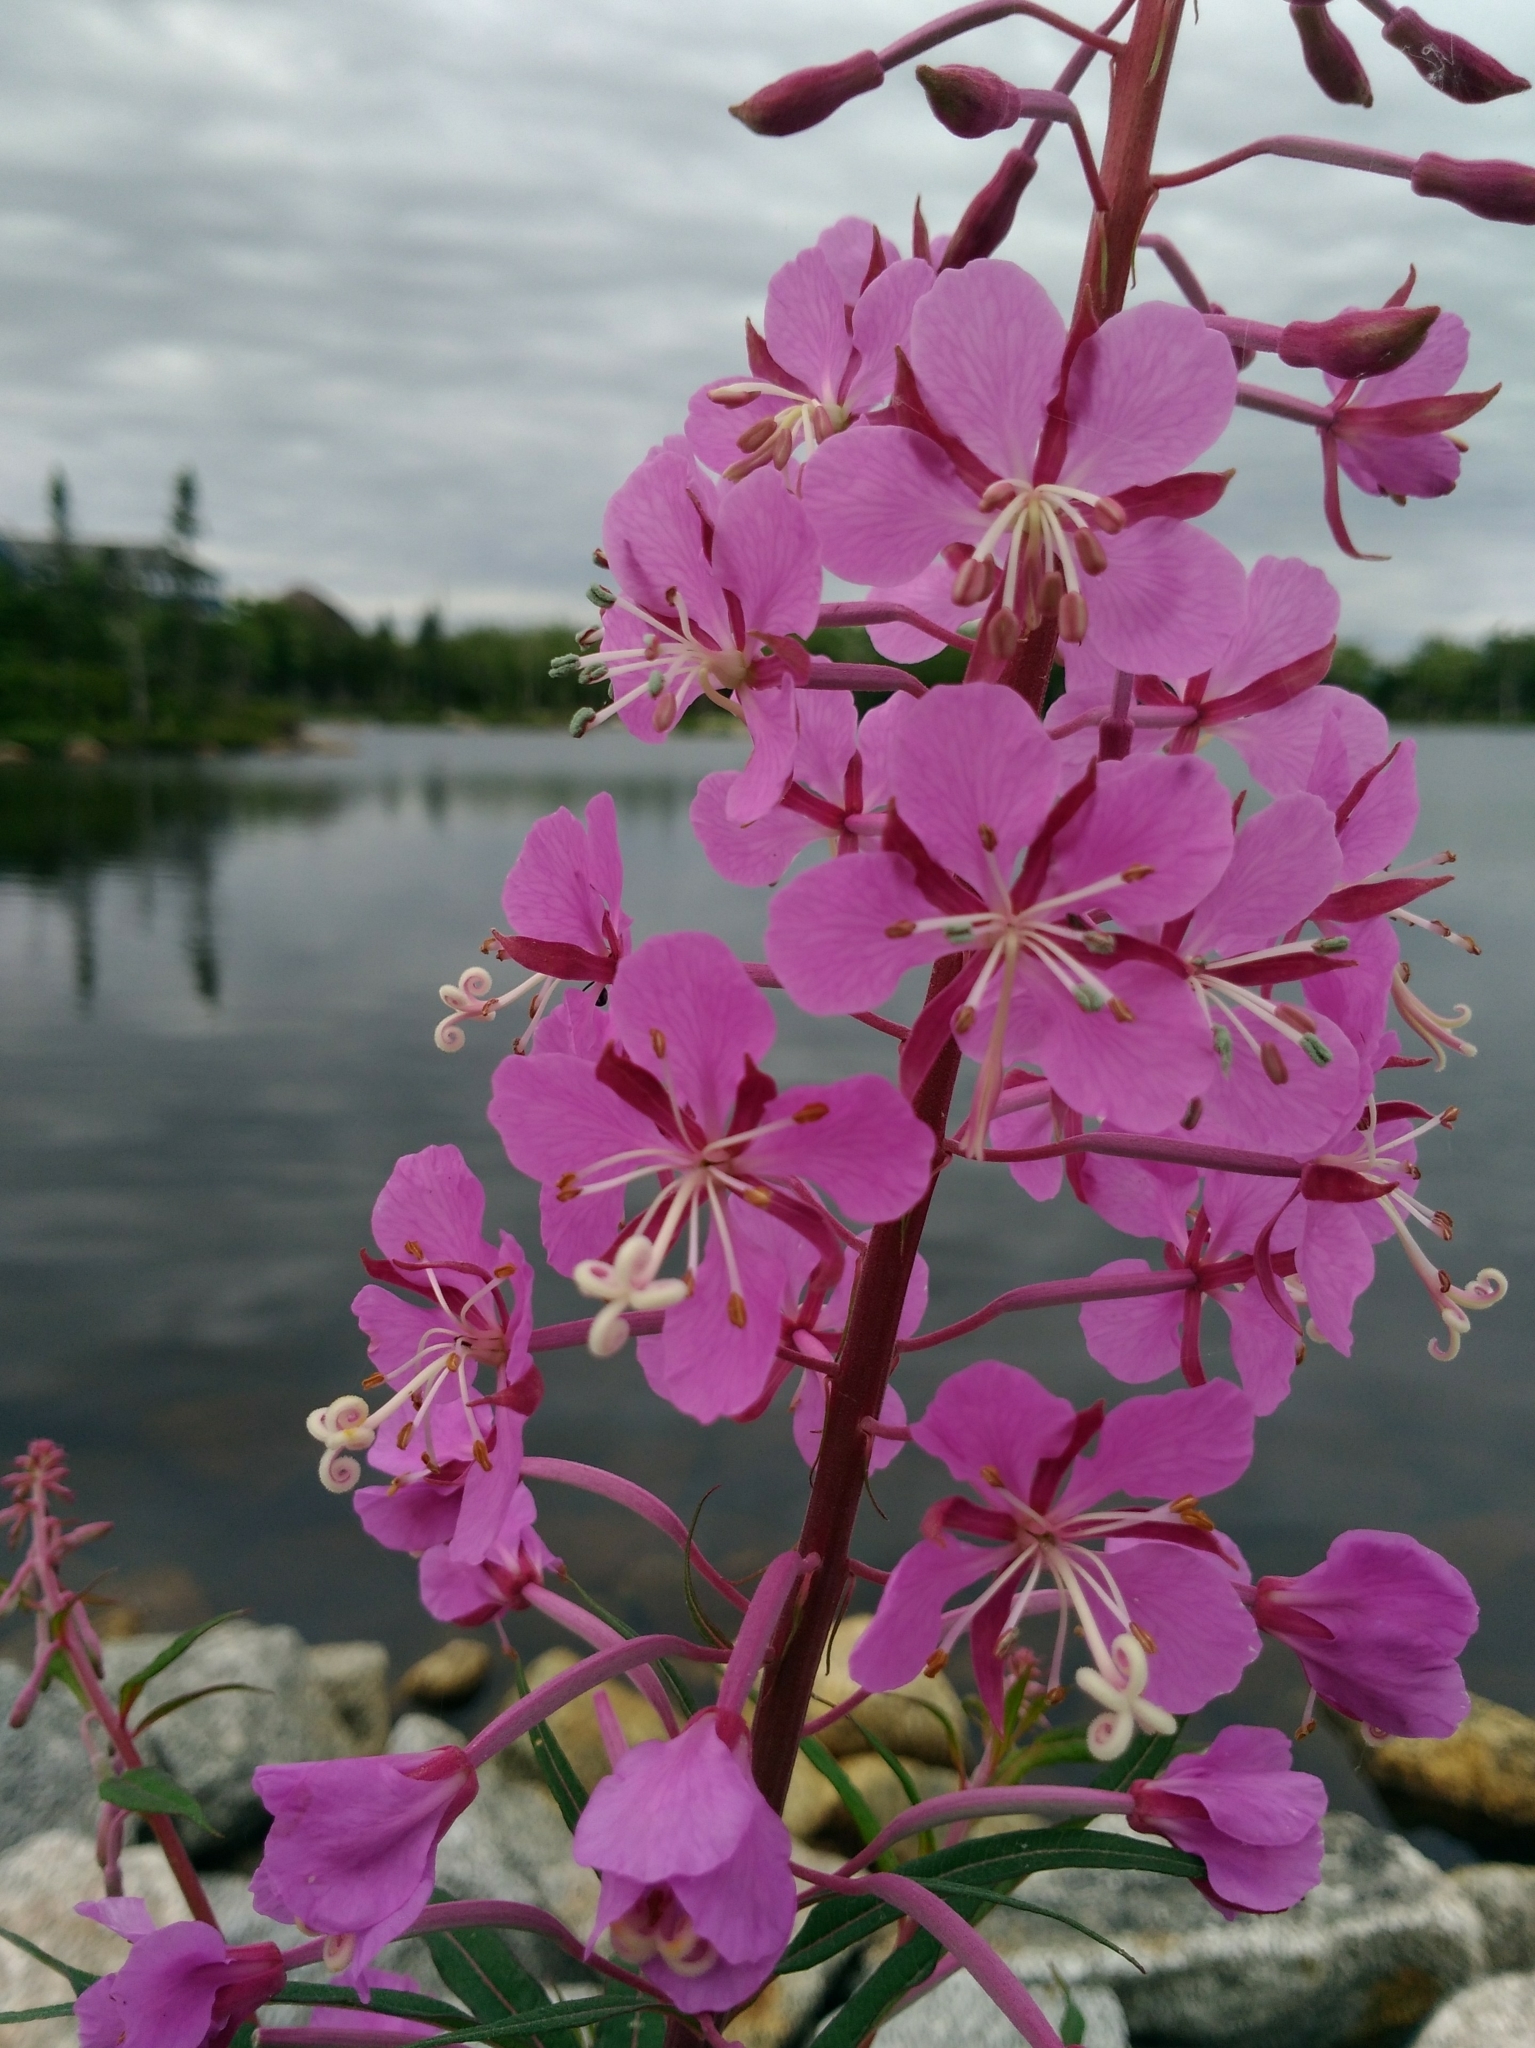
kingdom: Plantae
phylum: Tracheophyta
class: Magnoliopsida
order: Myrtales
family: Onagraceae
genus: Chamaenerion
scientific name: Chamaenerion angustifolium
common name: Fireweed
